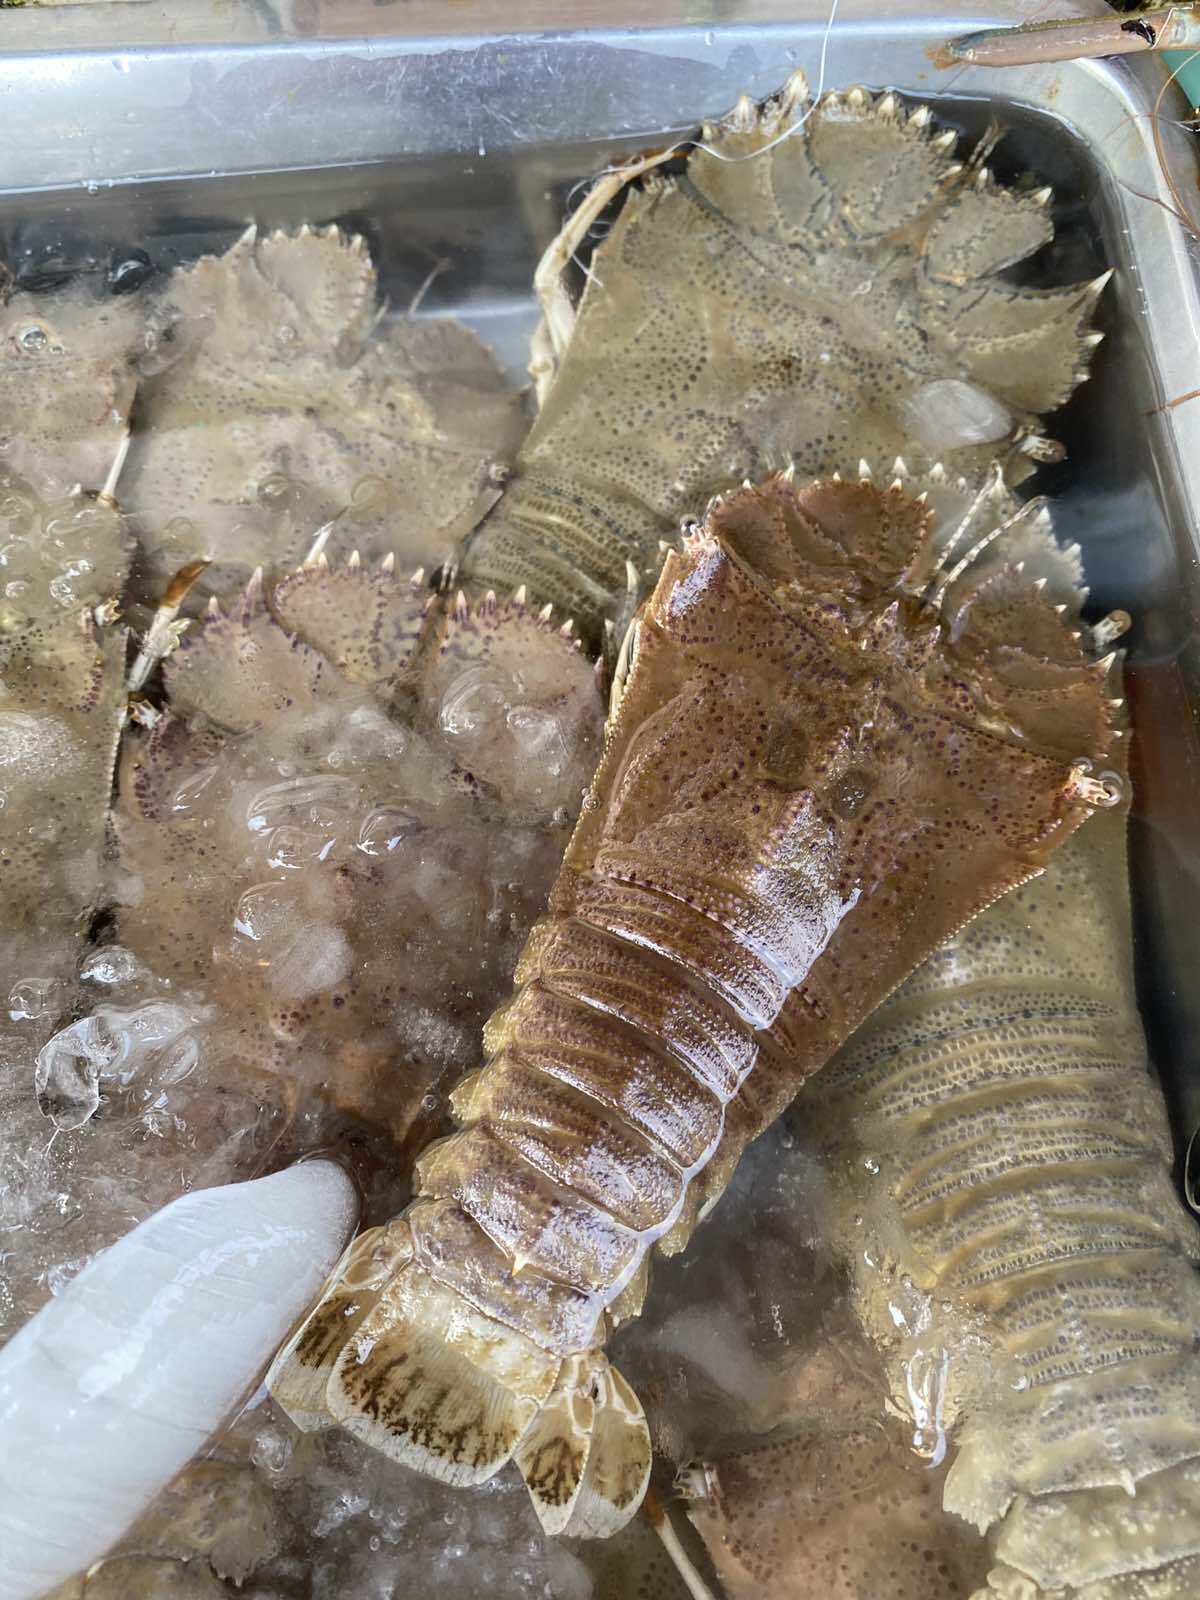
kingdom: Animalia
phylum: Arthropoda
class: Malacostraca
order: Decapoda
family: Scyllaridae
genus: Thenus
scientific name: Thenus orientalis
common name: Flathead lobster
